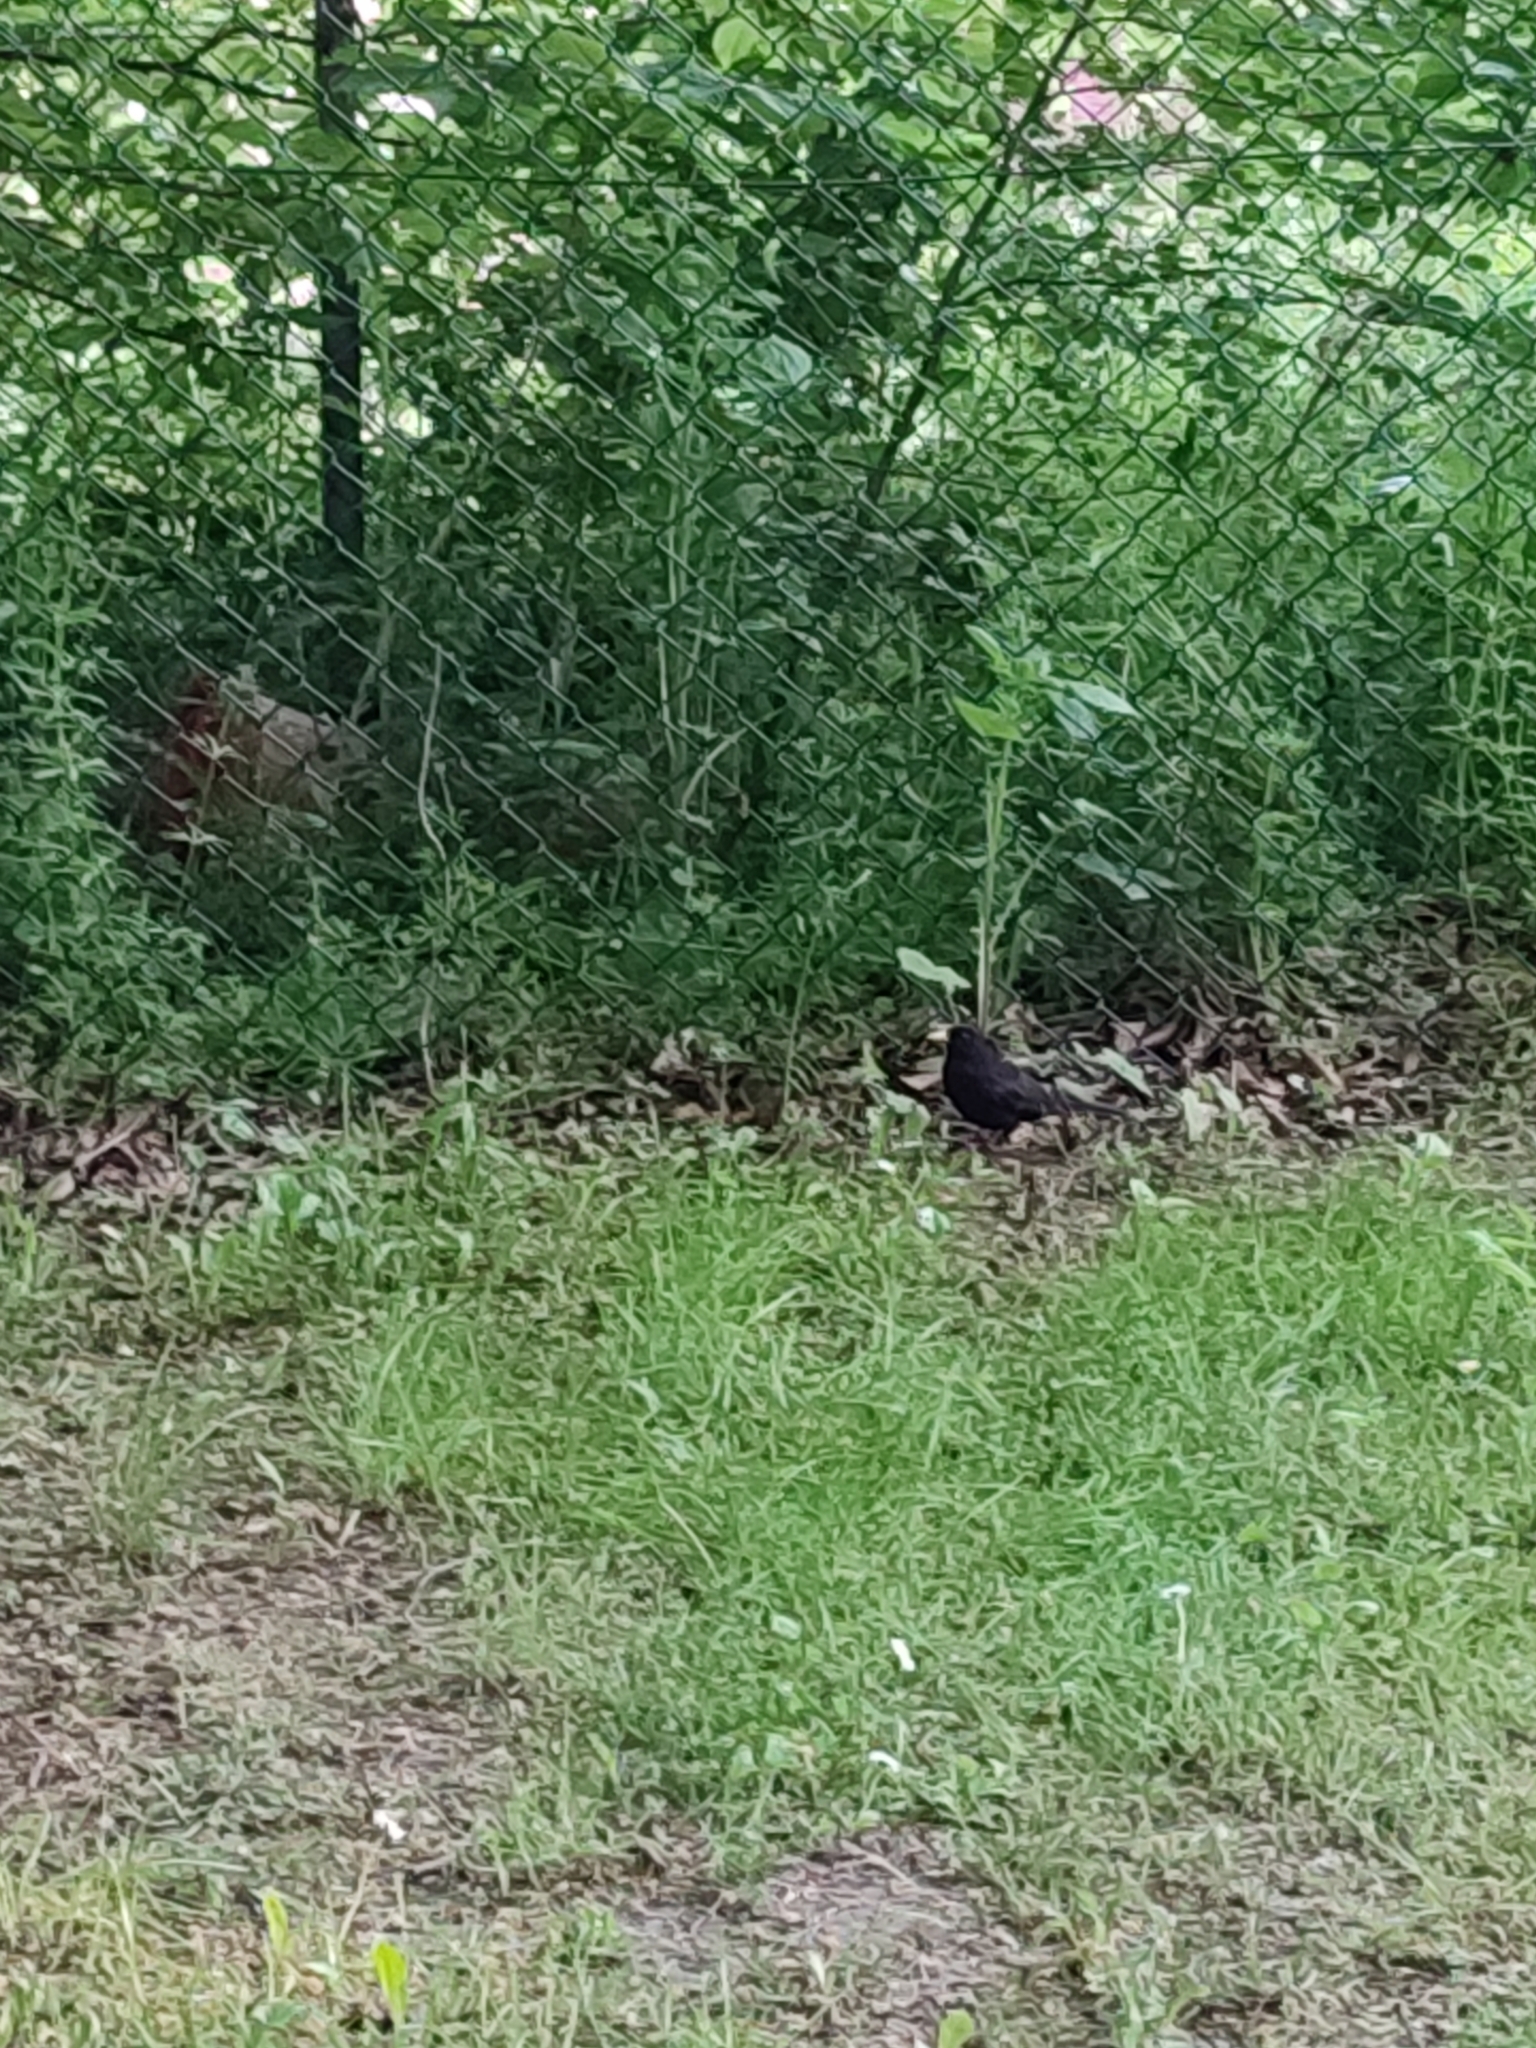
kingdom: Animalia
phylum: Chordata
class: Aves
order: Passeriformes
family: Turdidae
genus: Turdus
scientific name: Turdus merula
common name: Common blackbird
